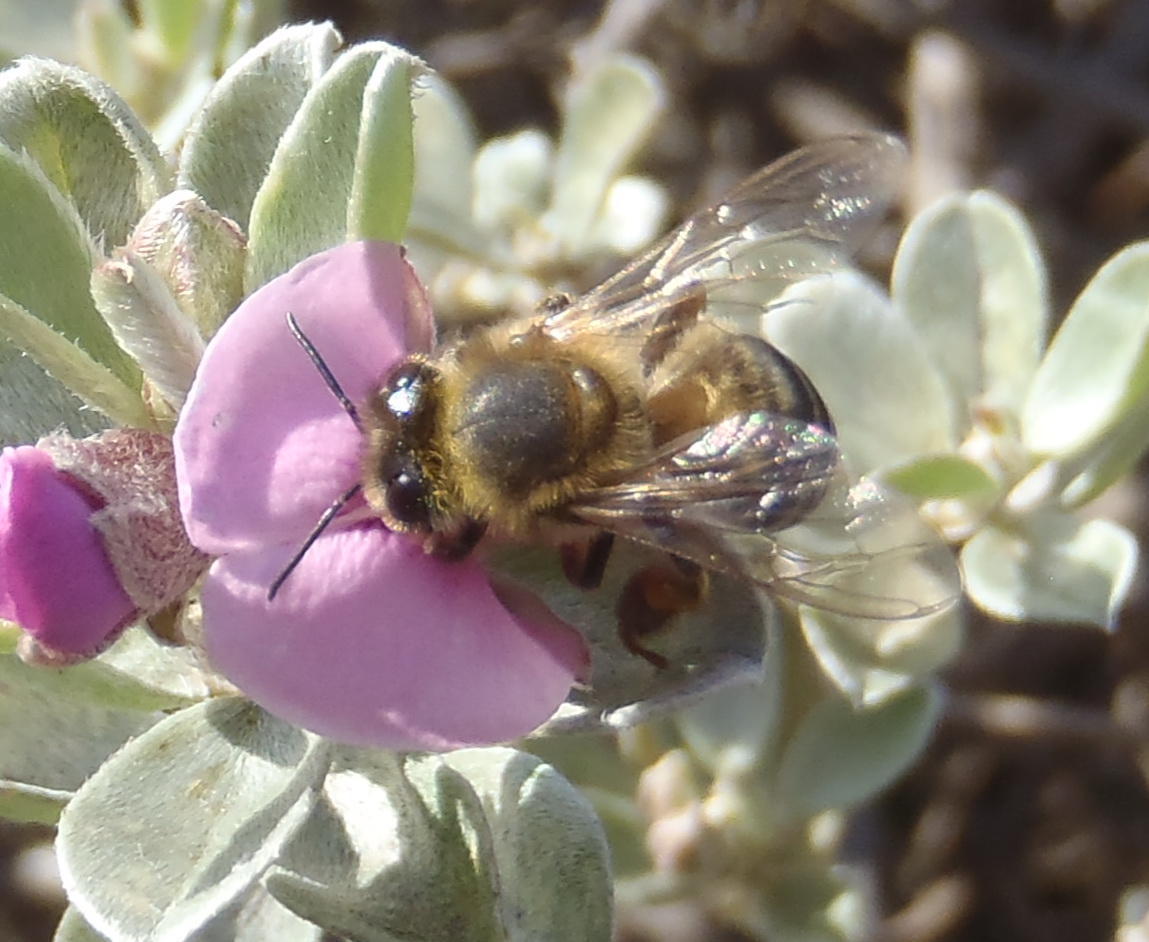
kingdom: Animalia
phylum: Arthropoda
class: Insecta
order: Hymenoptera
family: Apidae
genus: Apis
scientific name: Apis mellifera
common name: Honey bee
